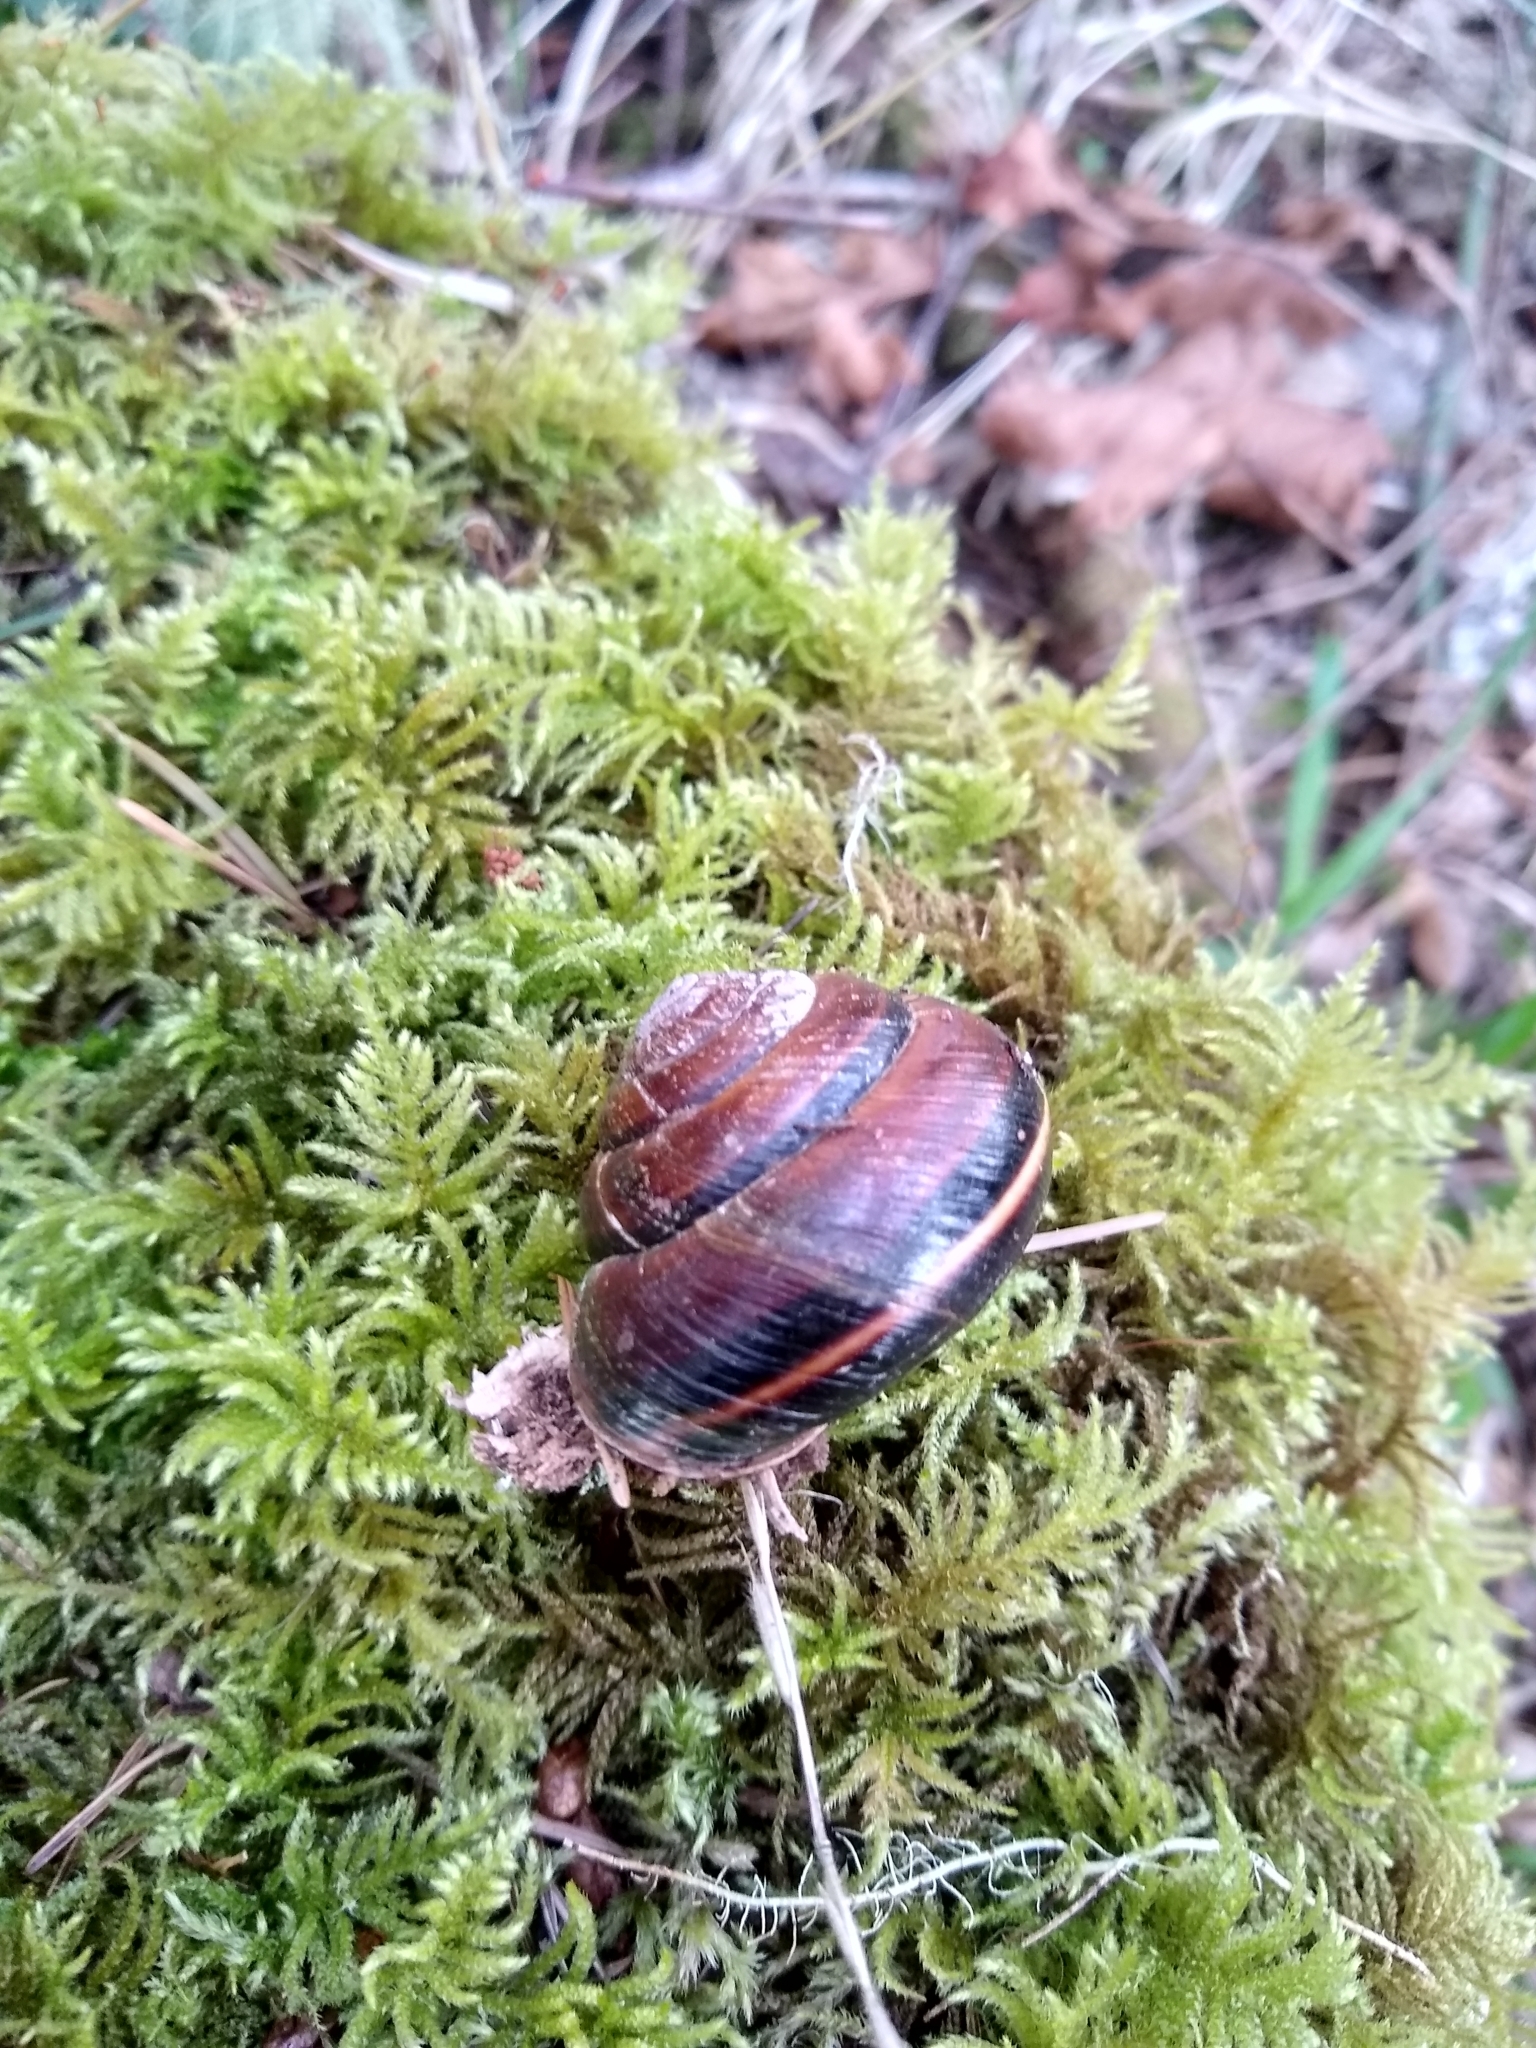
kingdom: Animalia
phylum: Mollusca
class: Gastropoda
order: Stylommatophora
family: Xanthonychidae
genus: Monadenia
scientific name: Monadenia fidelis
